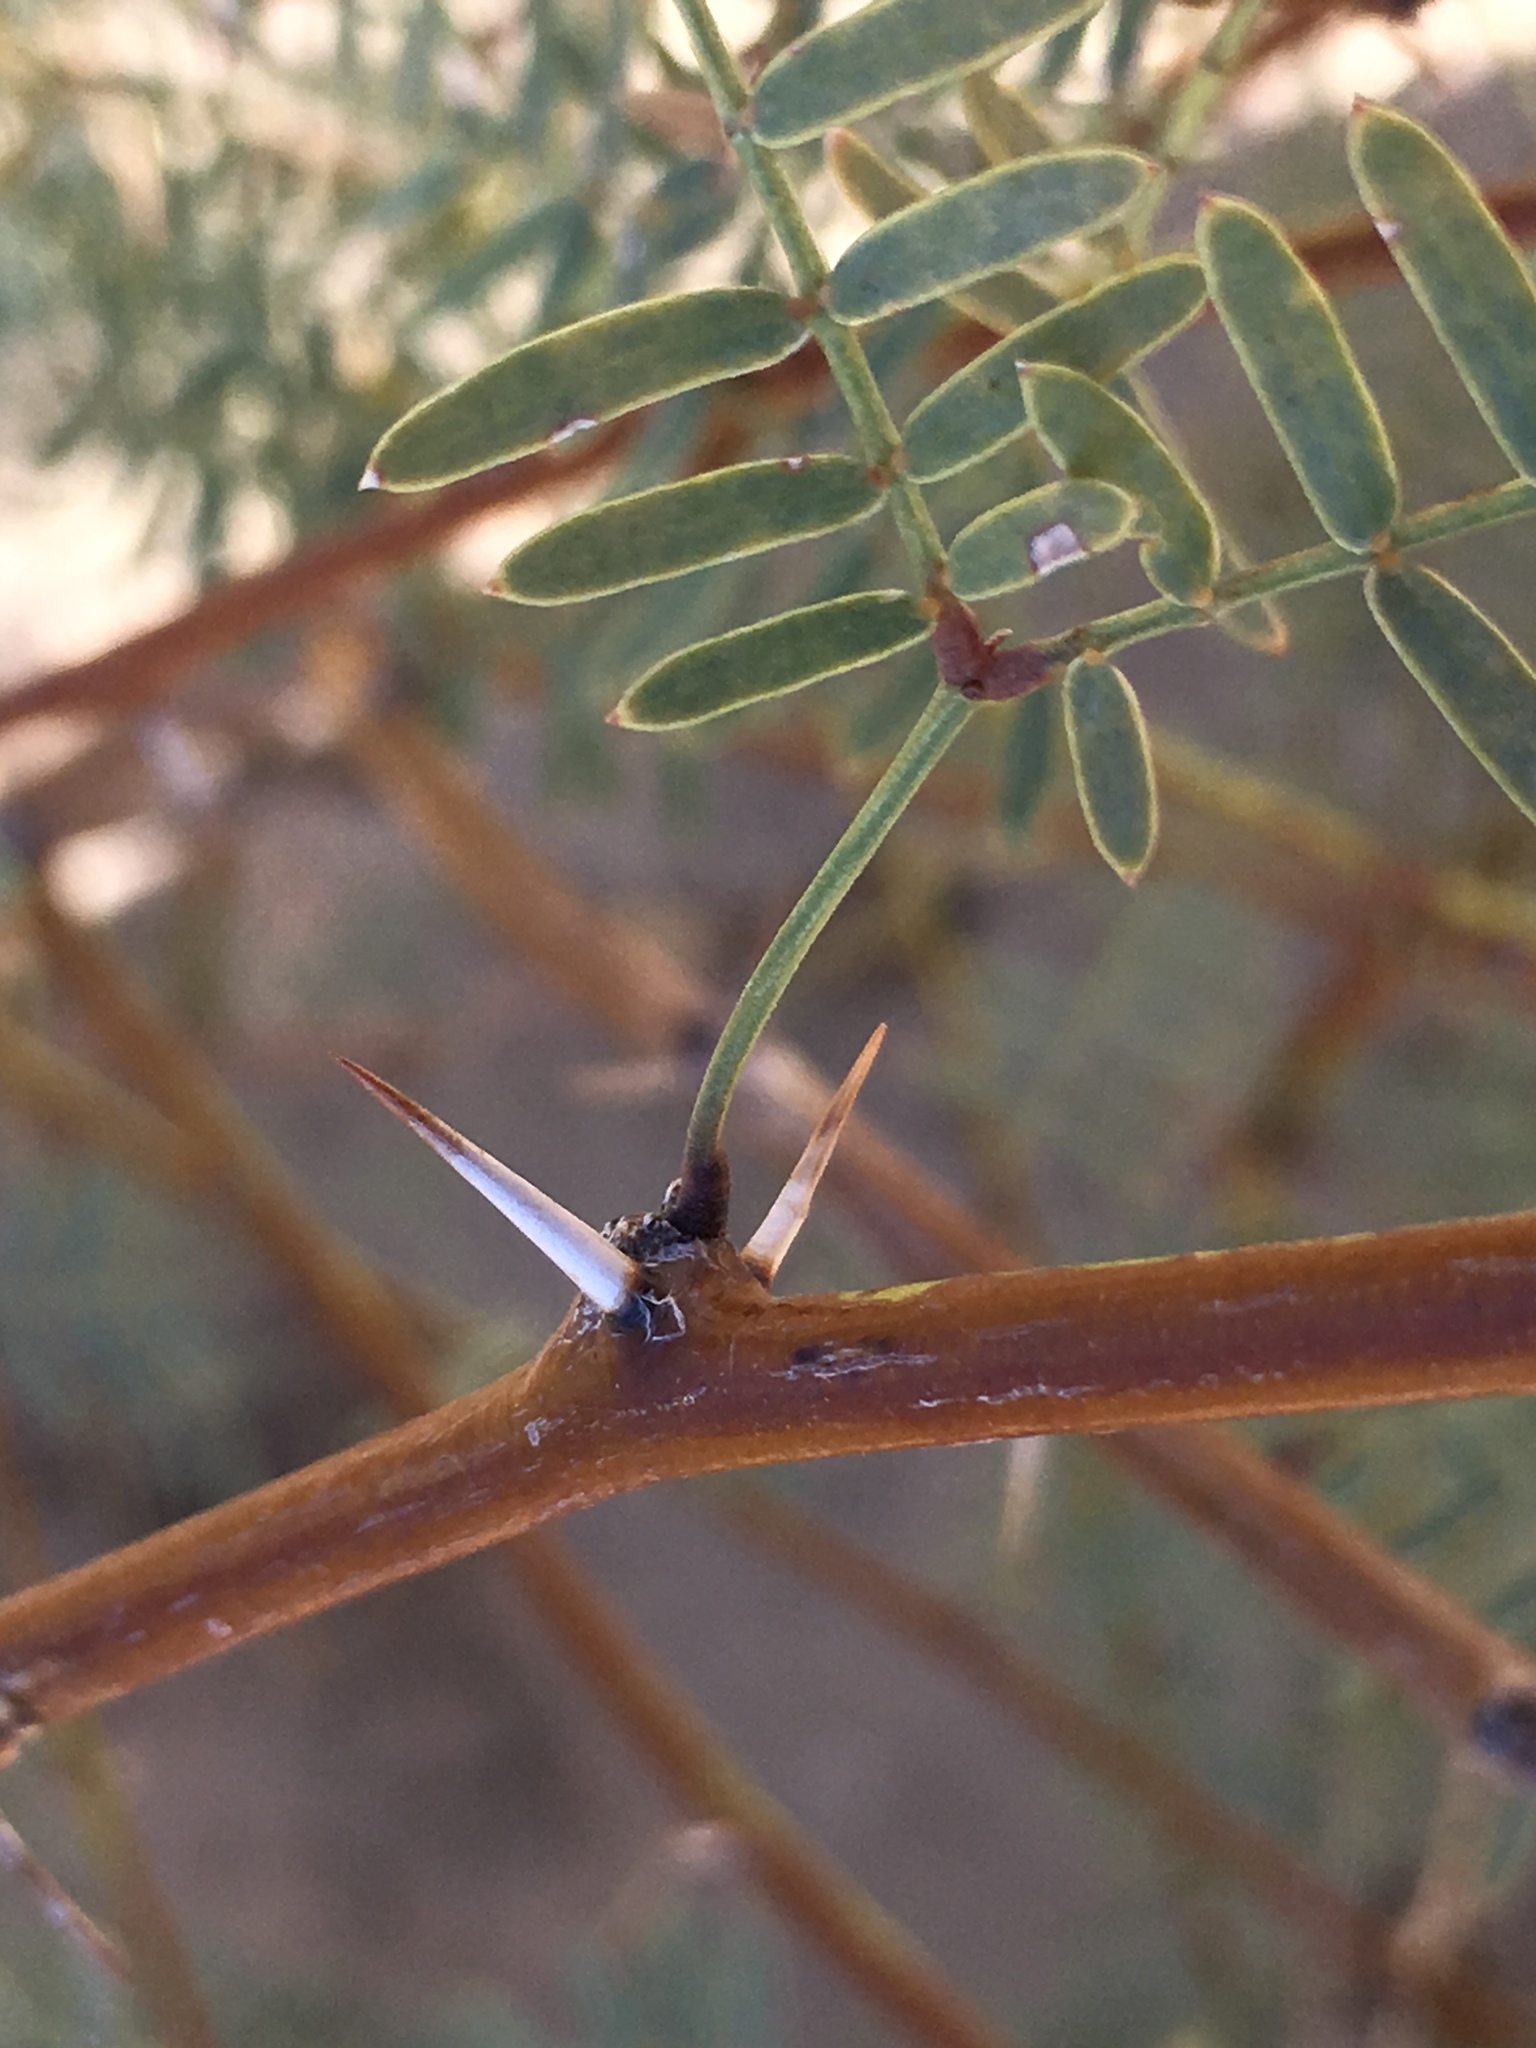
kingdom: Plantae
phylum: Tracheophyta
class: Magnoliopsida
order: Fabales
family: Fabaceae
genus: Prosopis
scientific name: Prosopis pubescens
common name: Screw-bean
